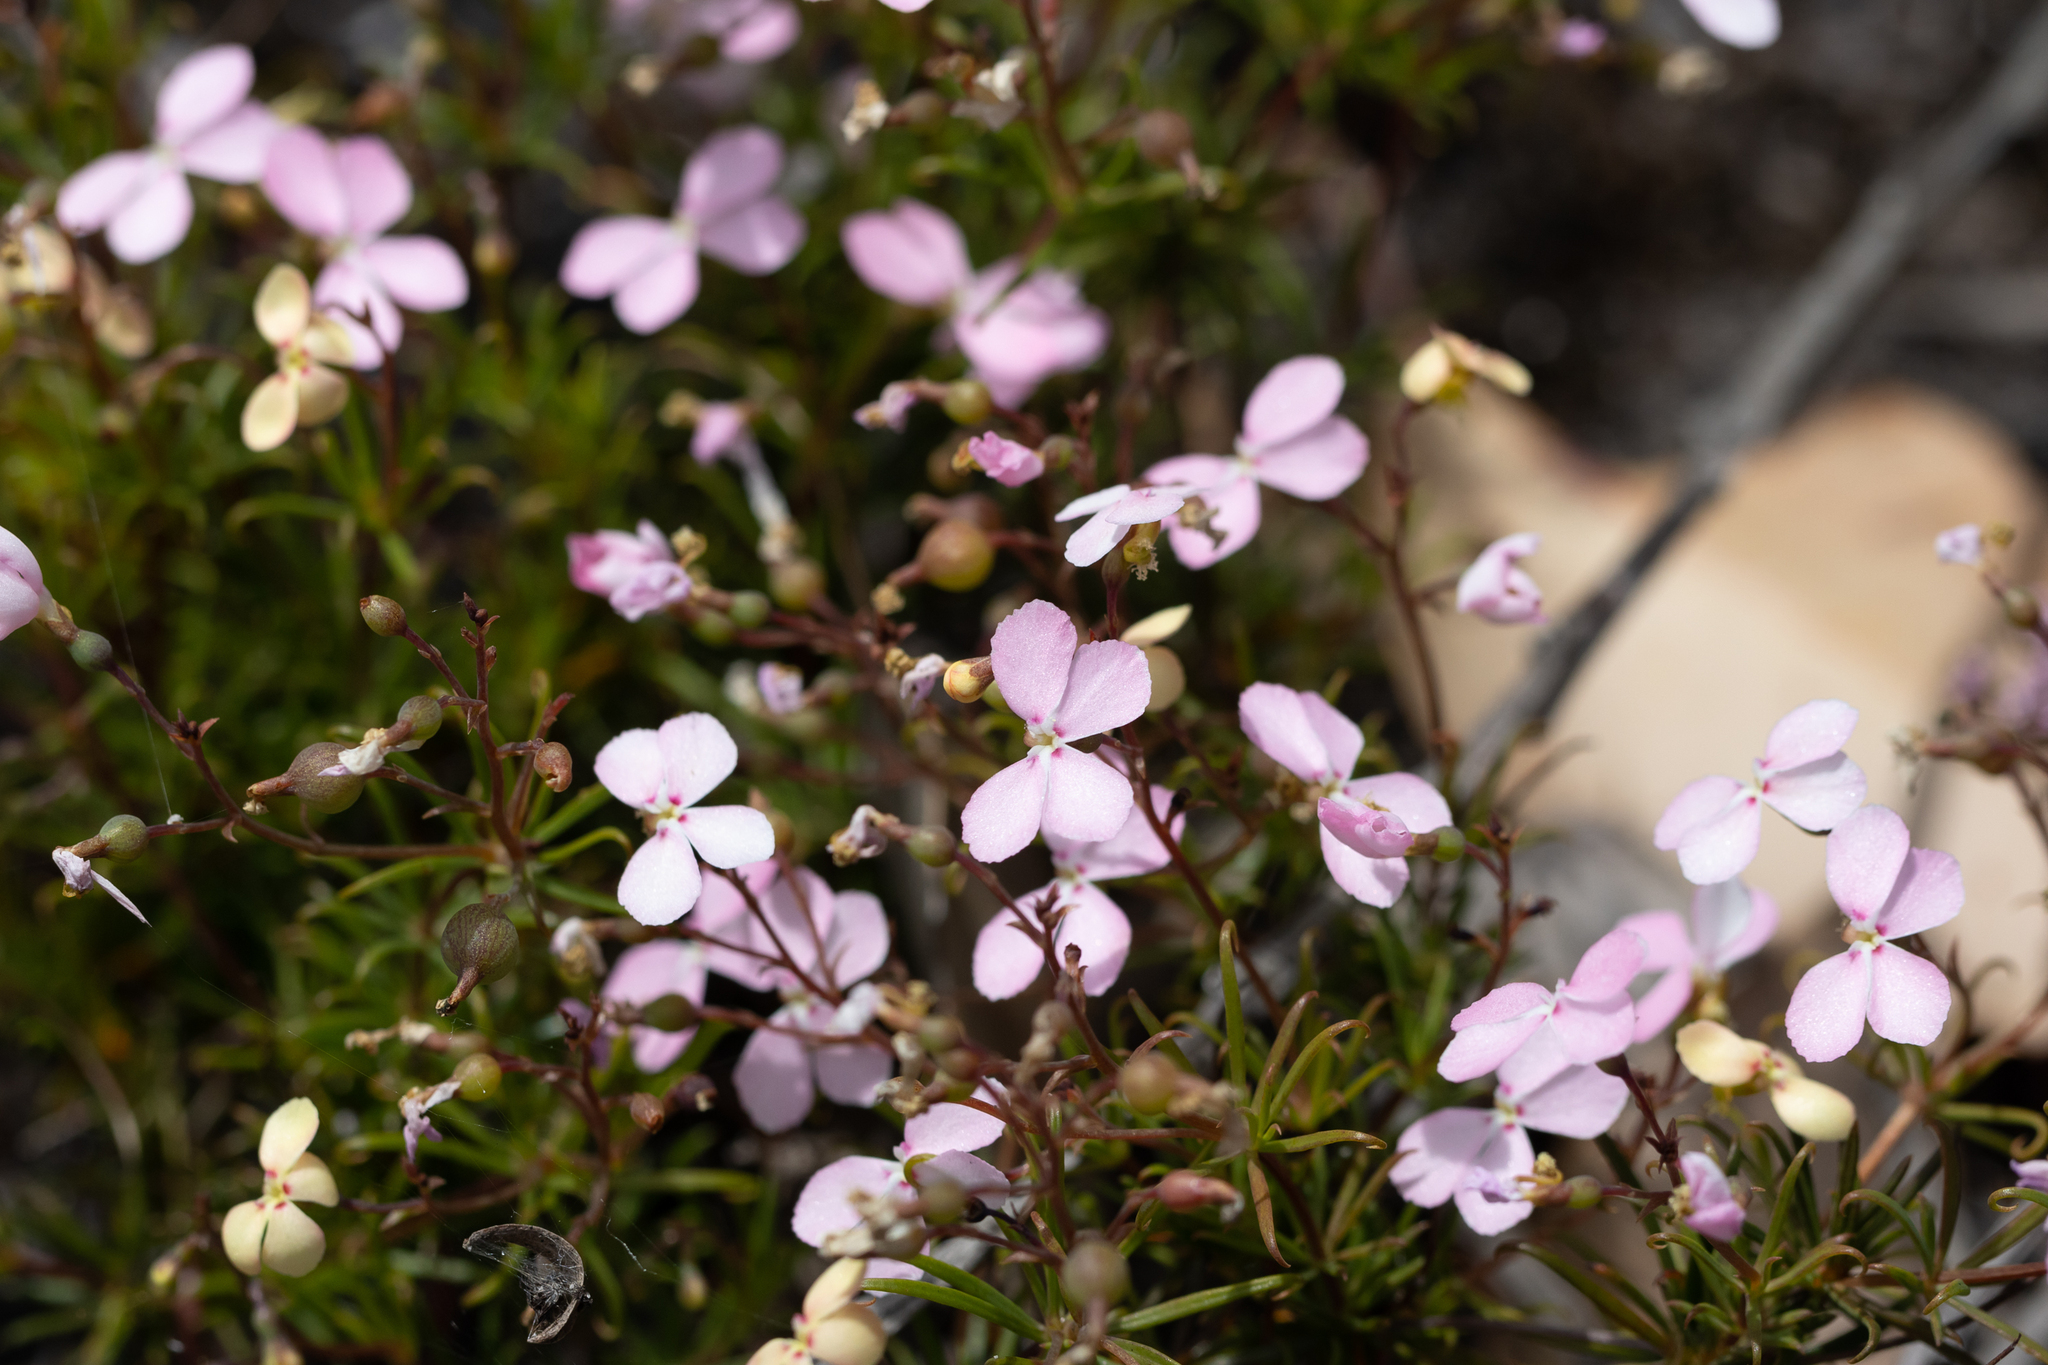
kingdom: Plantae
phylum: Tracheophyta
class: Magnoliopsida
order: Asterales
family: Stylidiaceae
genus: Stylidium
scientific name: Stylidium scandens
